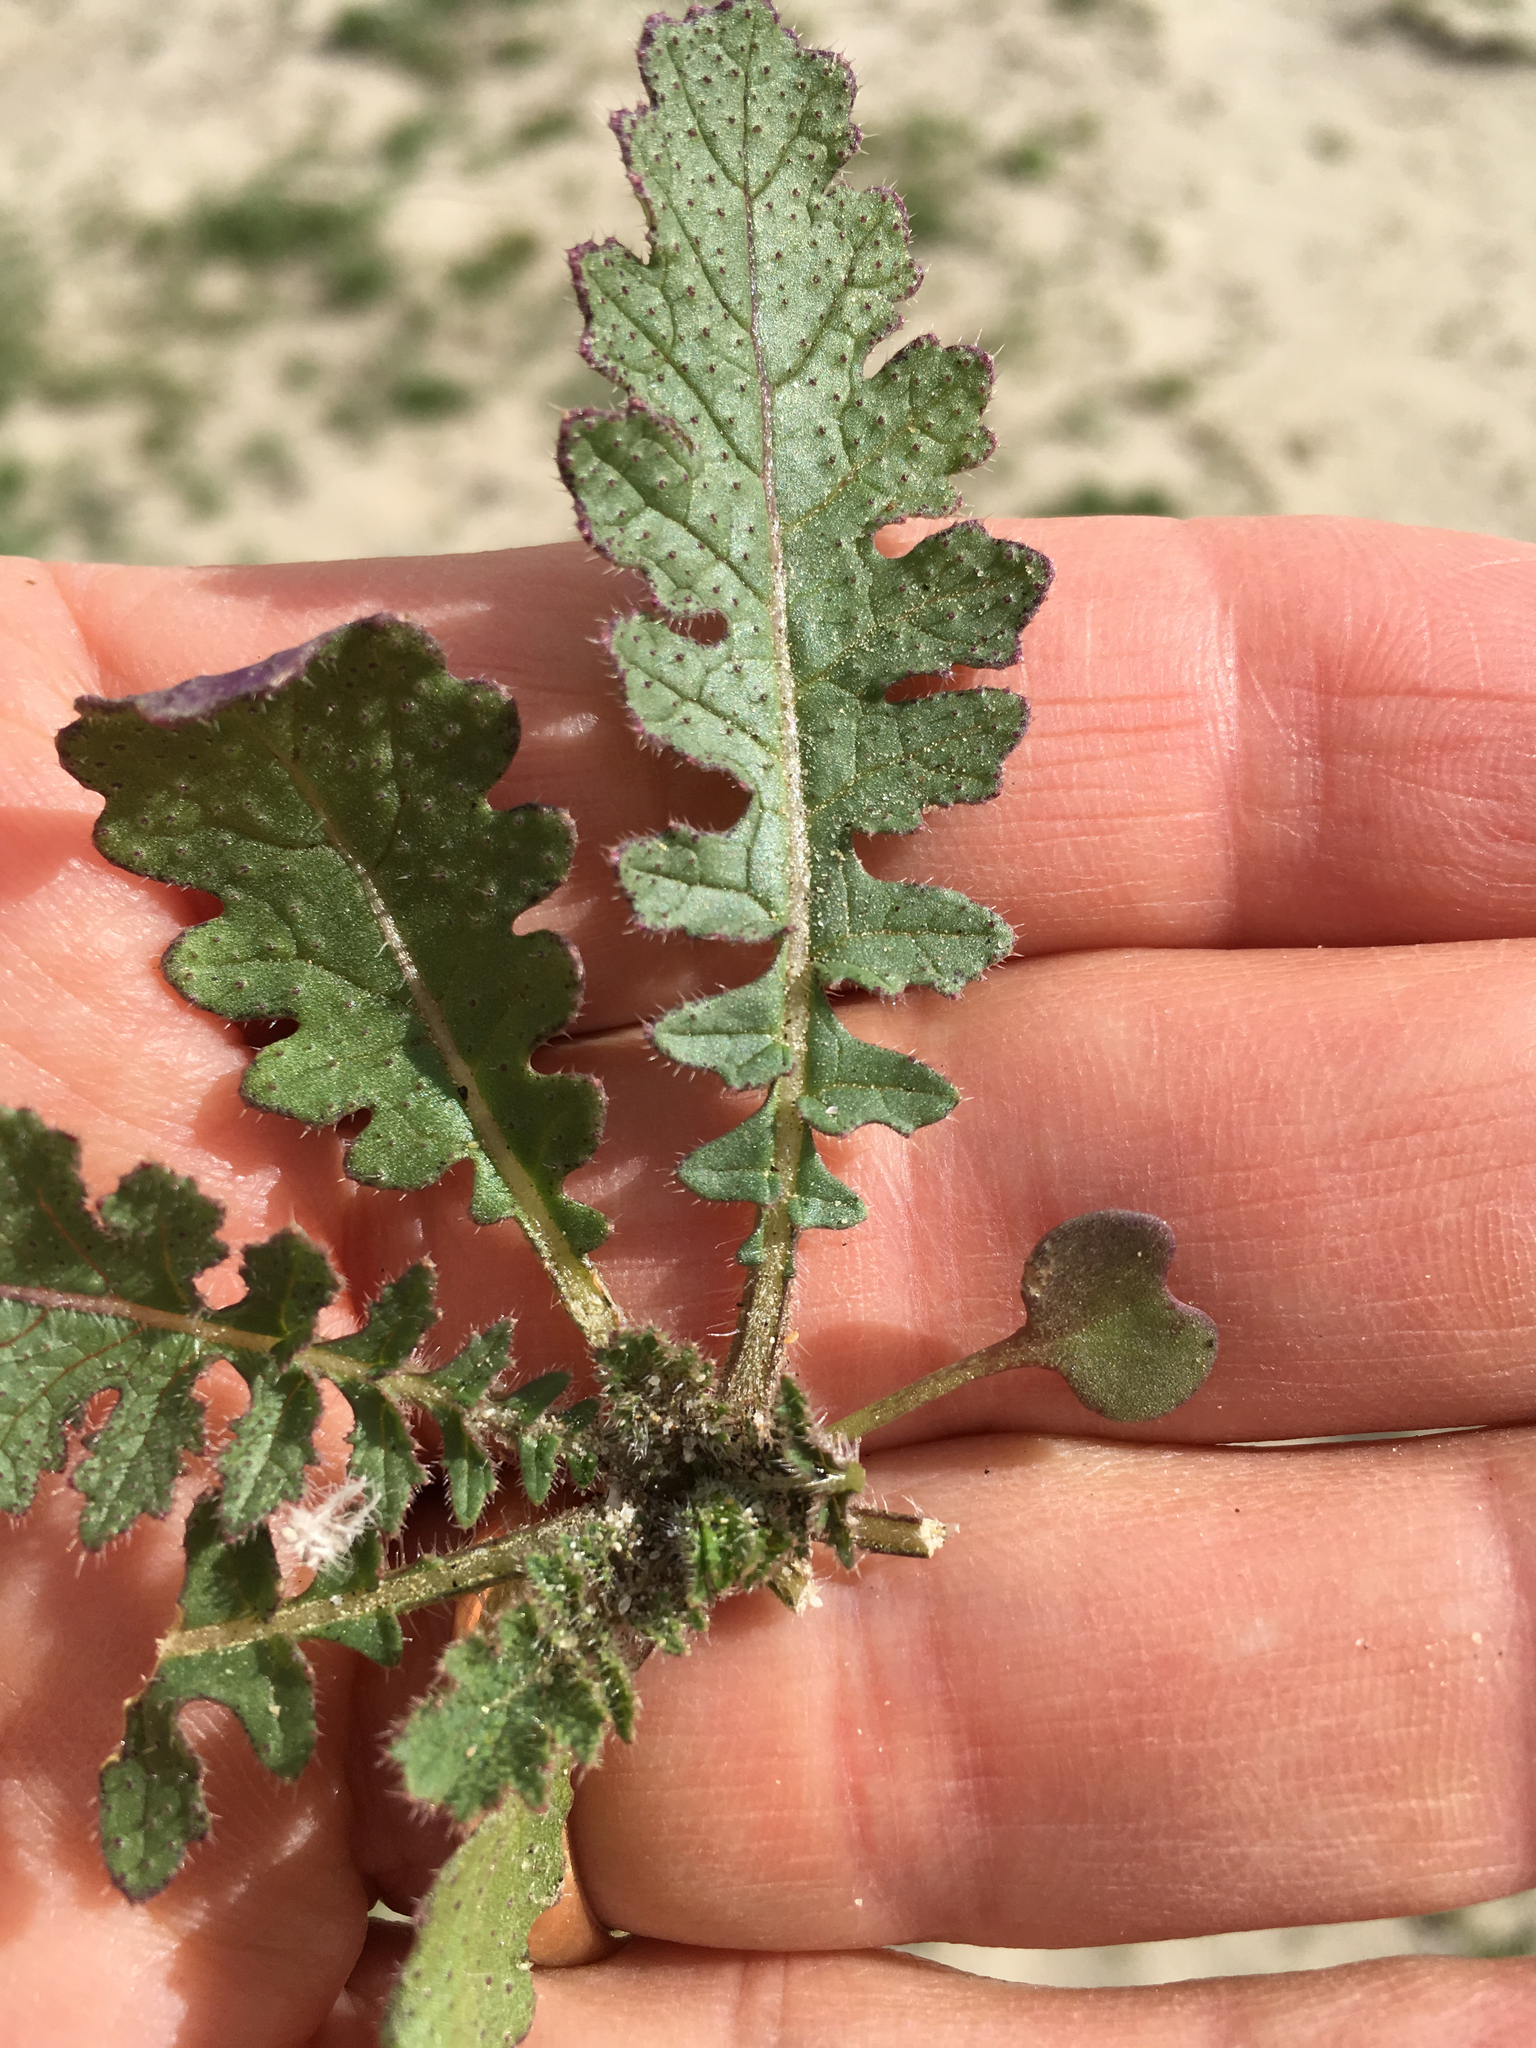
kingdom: Plantae
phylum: Tracheophyta
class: Magnoliopsida
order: Brassicales
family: Brassicaceae
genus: Brassica
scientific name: Brassica tournefortii
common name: Pale cabbage
